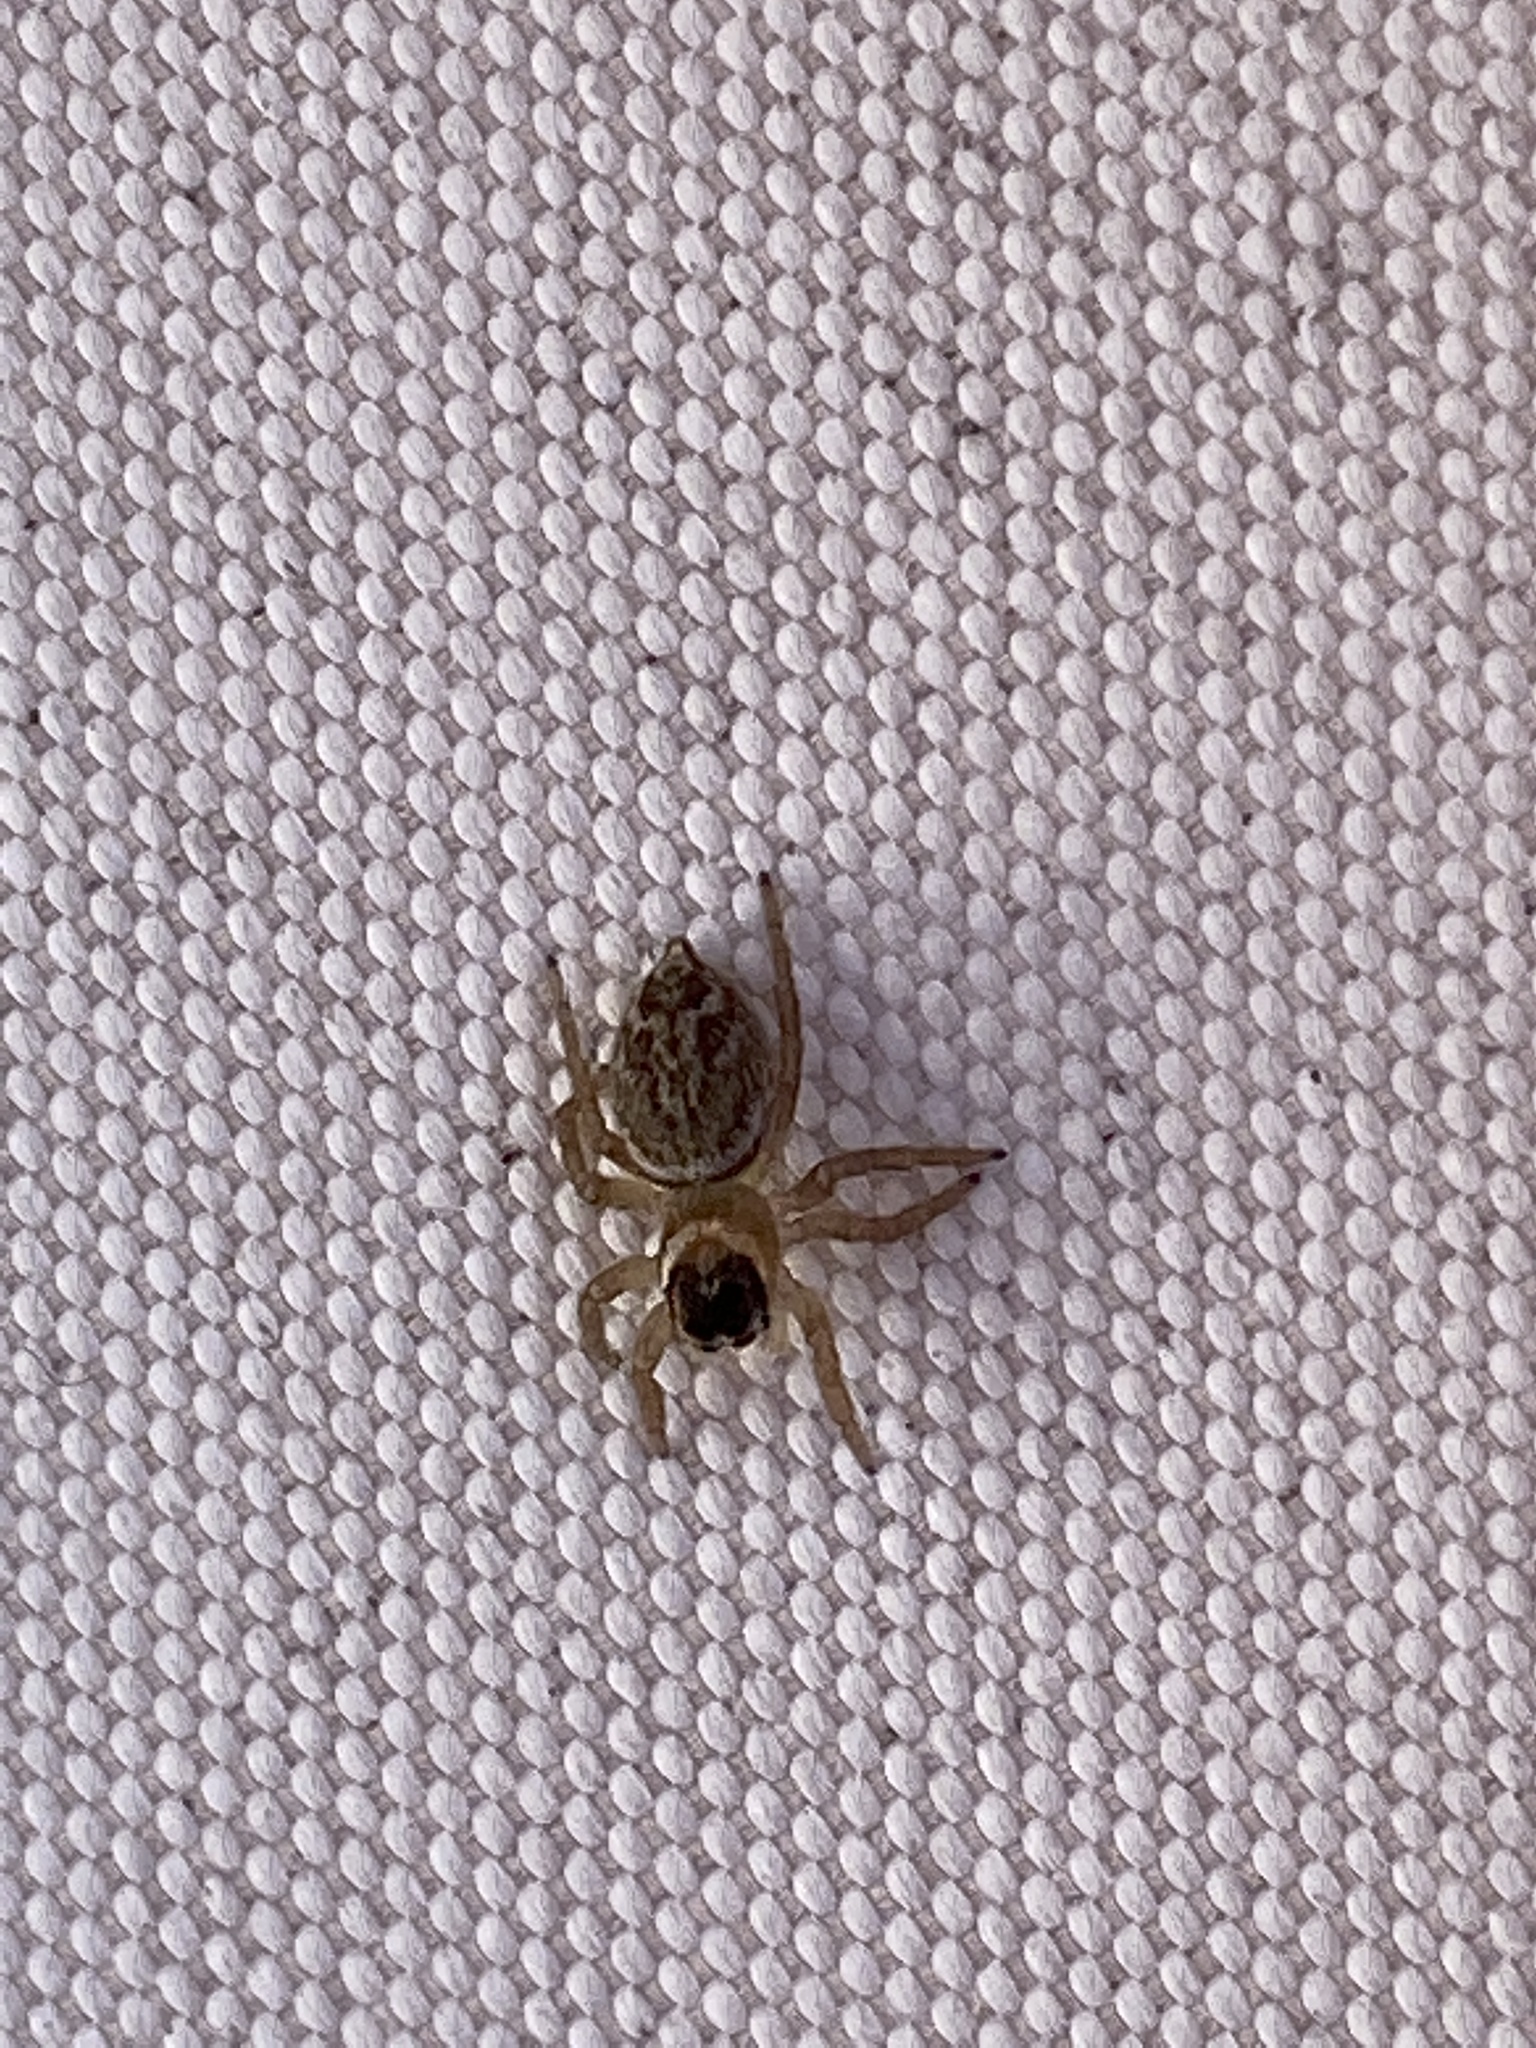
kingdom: Animalia
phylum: Arthropoda
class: Arachnida
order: Araneae
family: Salticidae
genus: Maratus
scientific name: Maratus griseus
